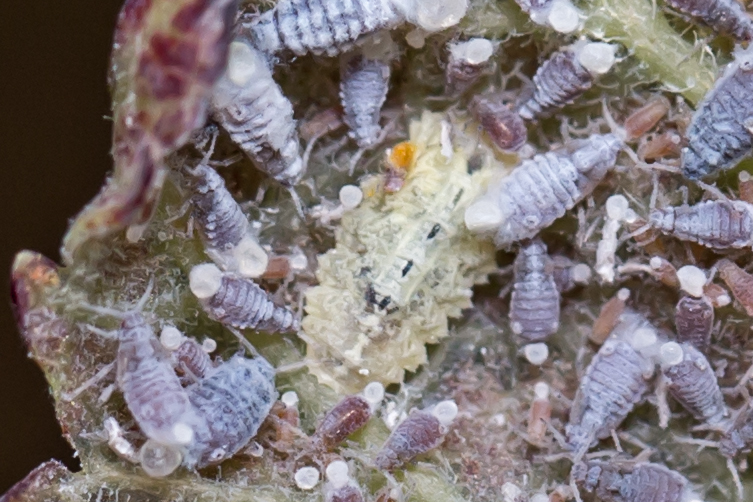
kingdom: Animalia
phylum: Arthropoda
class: Insecta
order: Diptera
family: Syrphidae
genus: Epistrophella
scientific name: Epistrophella emarginata
